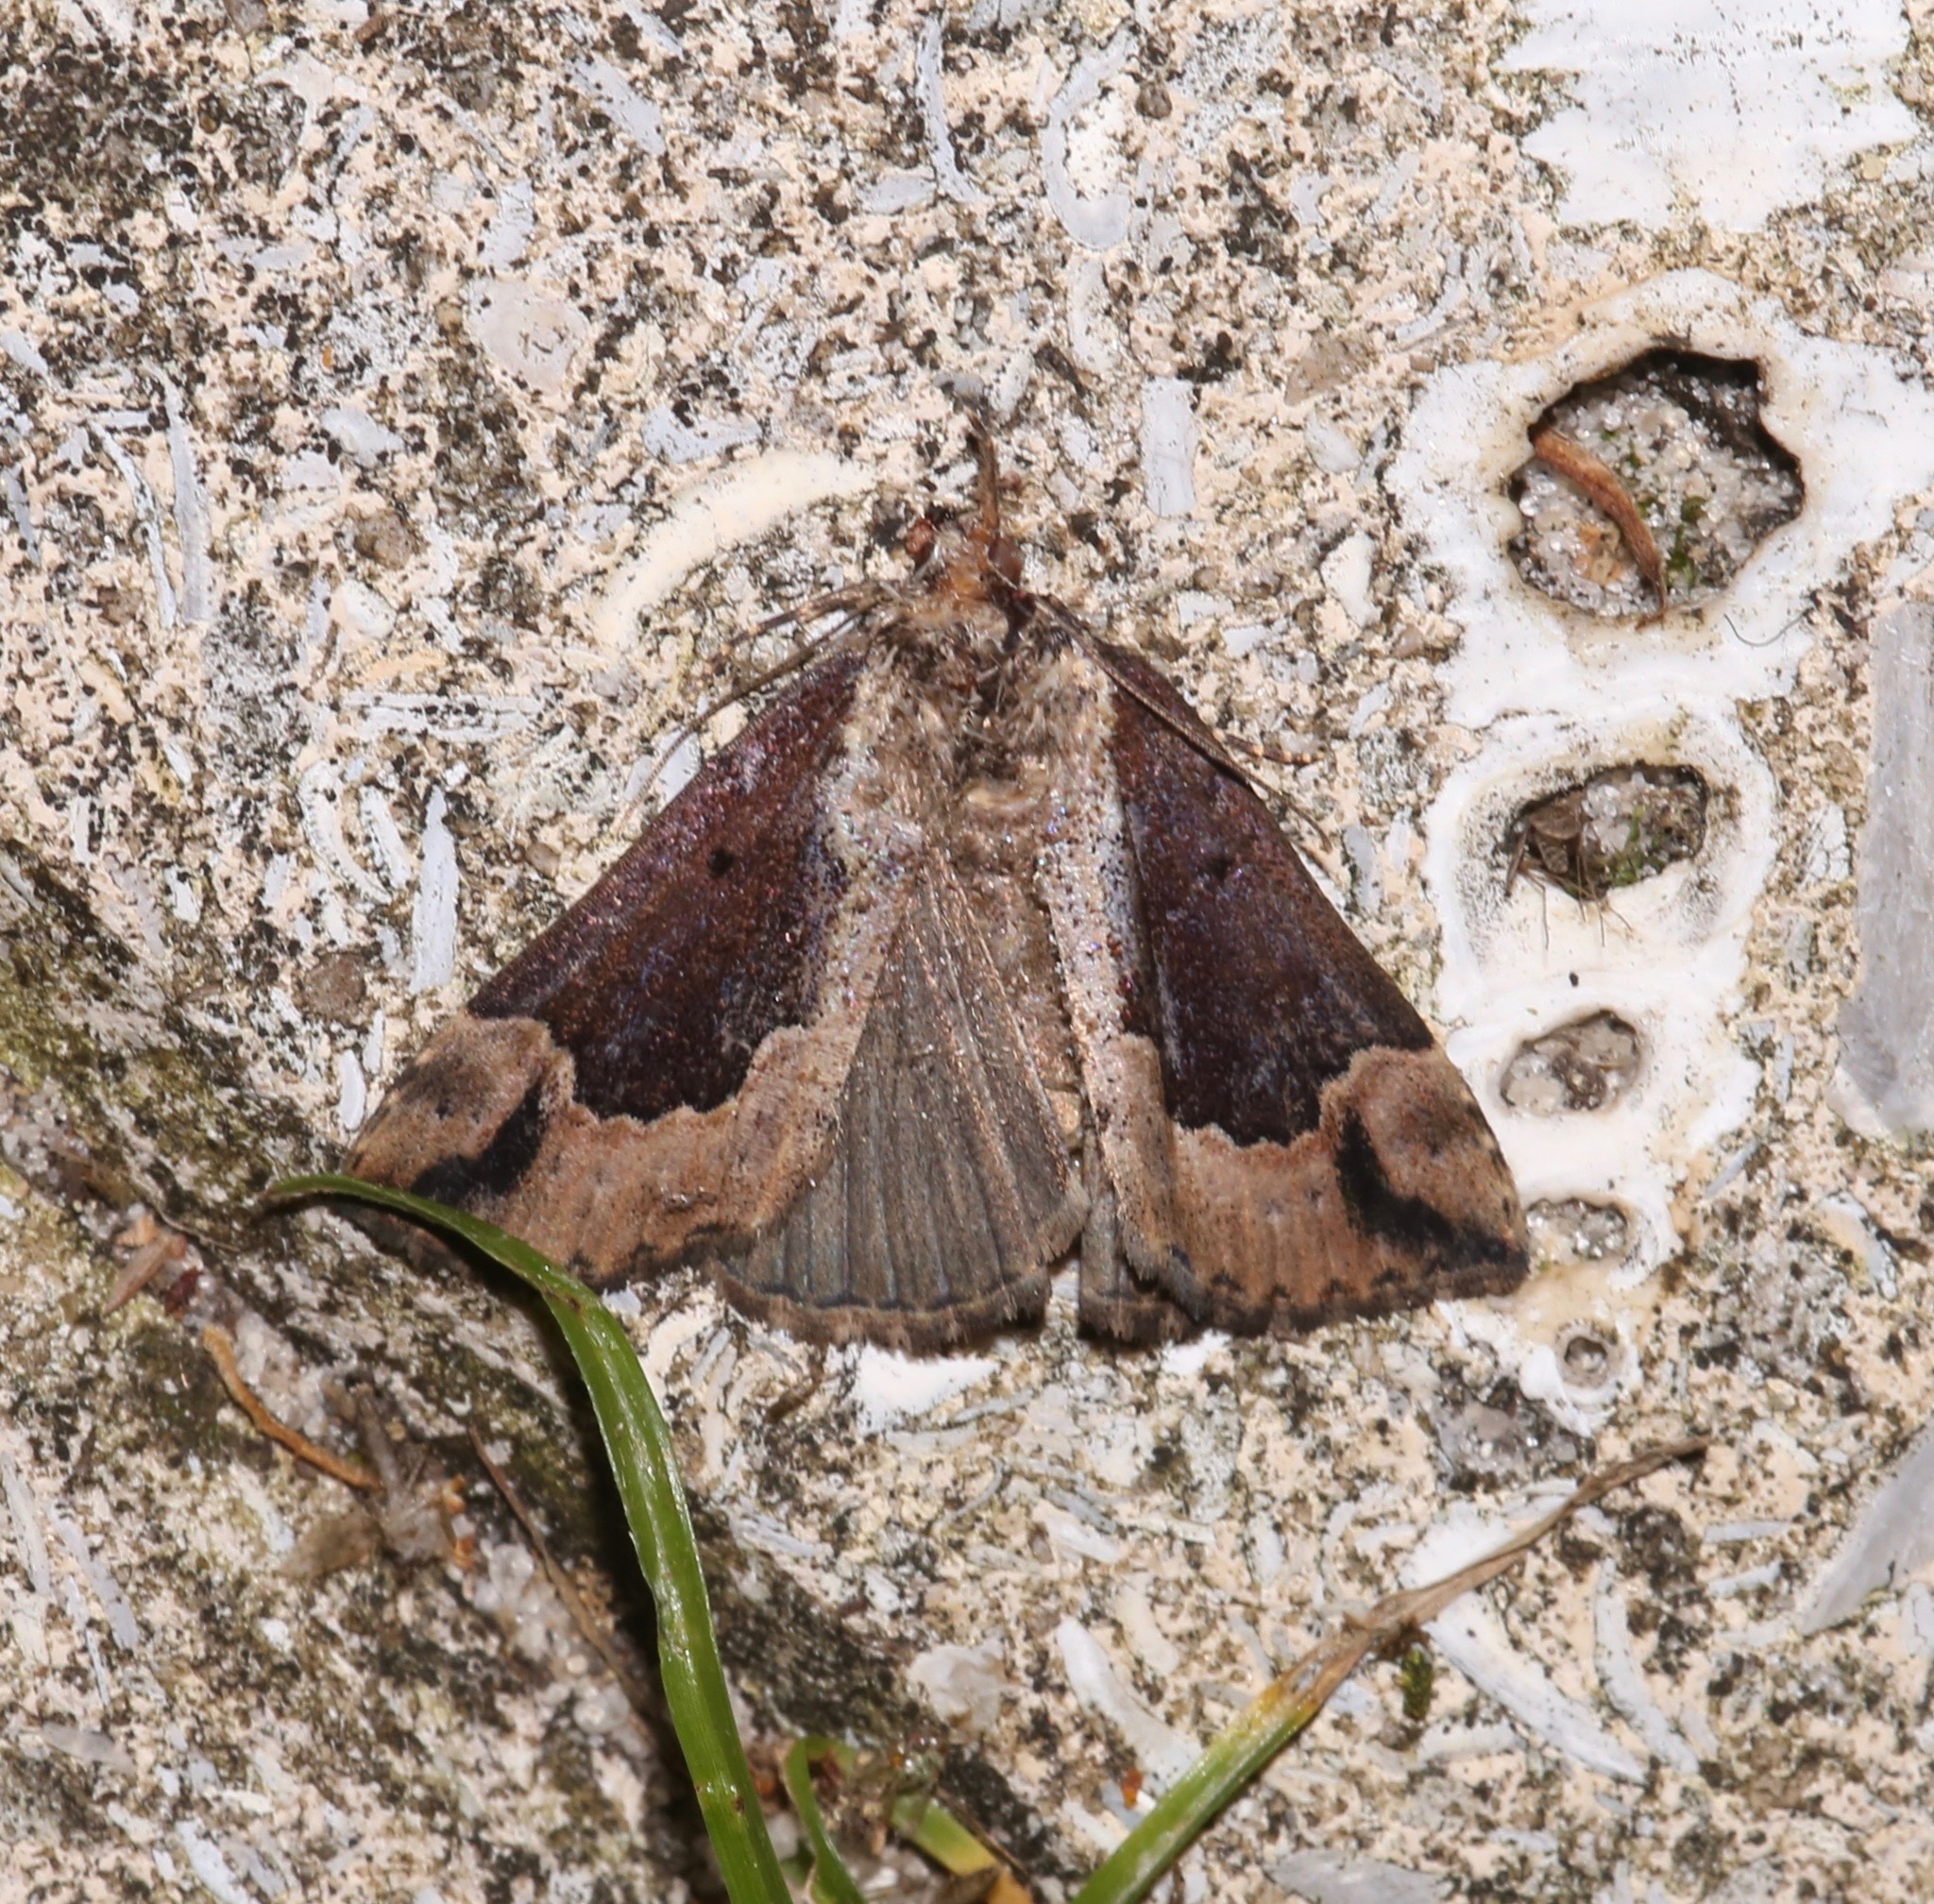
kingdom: Animalia
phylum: Arthropoda
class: Insecta
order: Lepidoptera
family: Erebidae
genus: Hypena
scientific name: Hypena baltimoralis
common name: Baltimore snout
